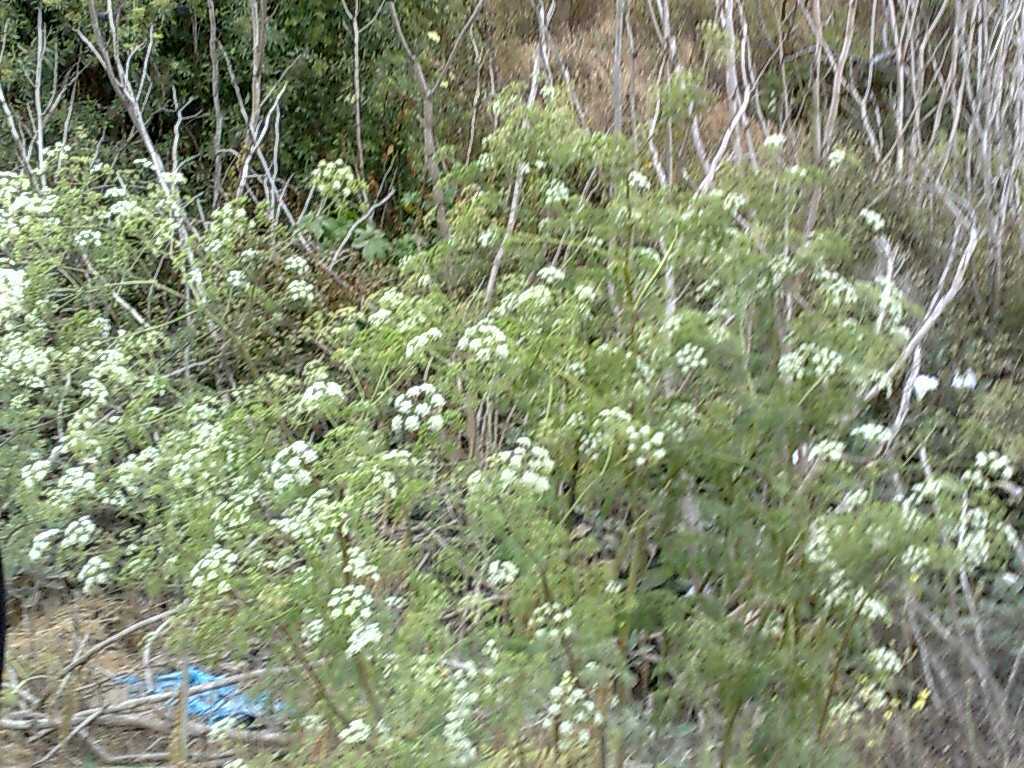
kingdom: Plantae
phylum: Tracheophyta
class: Magnoliopsida
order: Apiales
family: Apiaceae
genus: Conium
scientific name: Conium maculatum
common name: Hemlock
